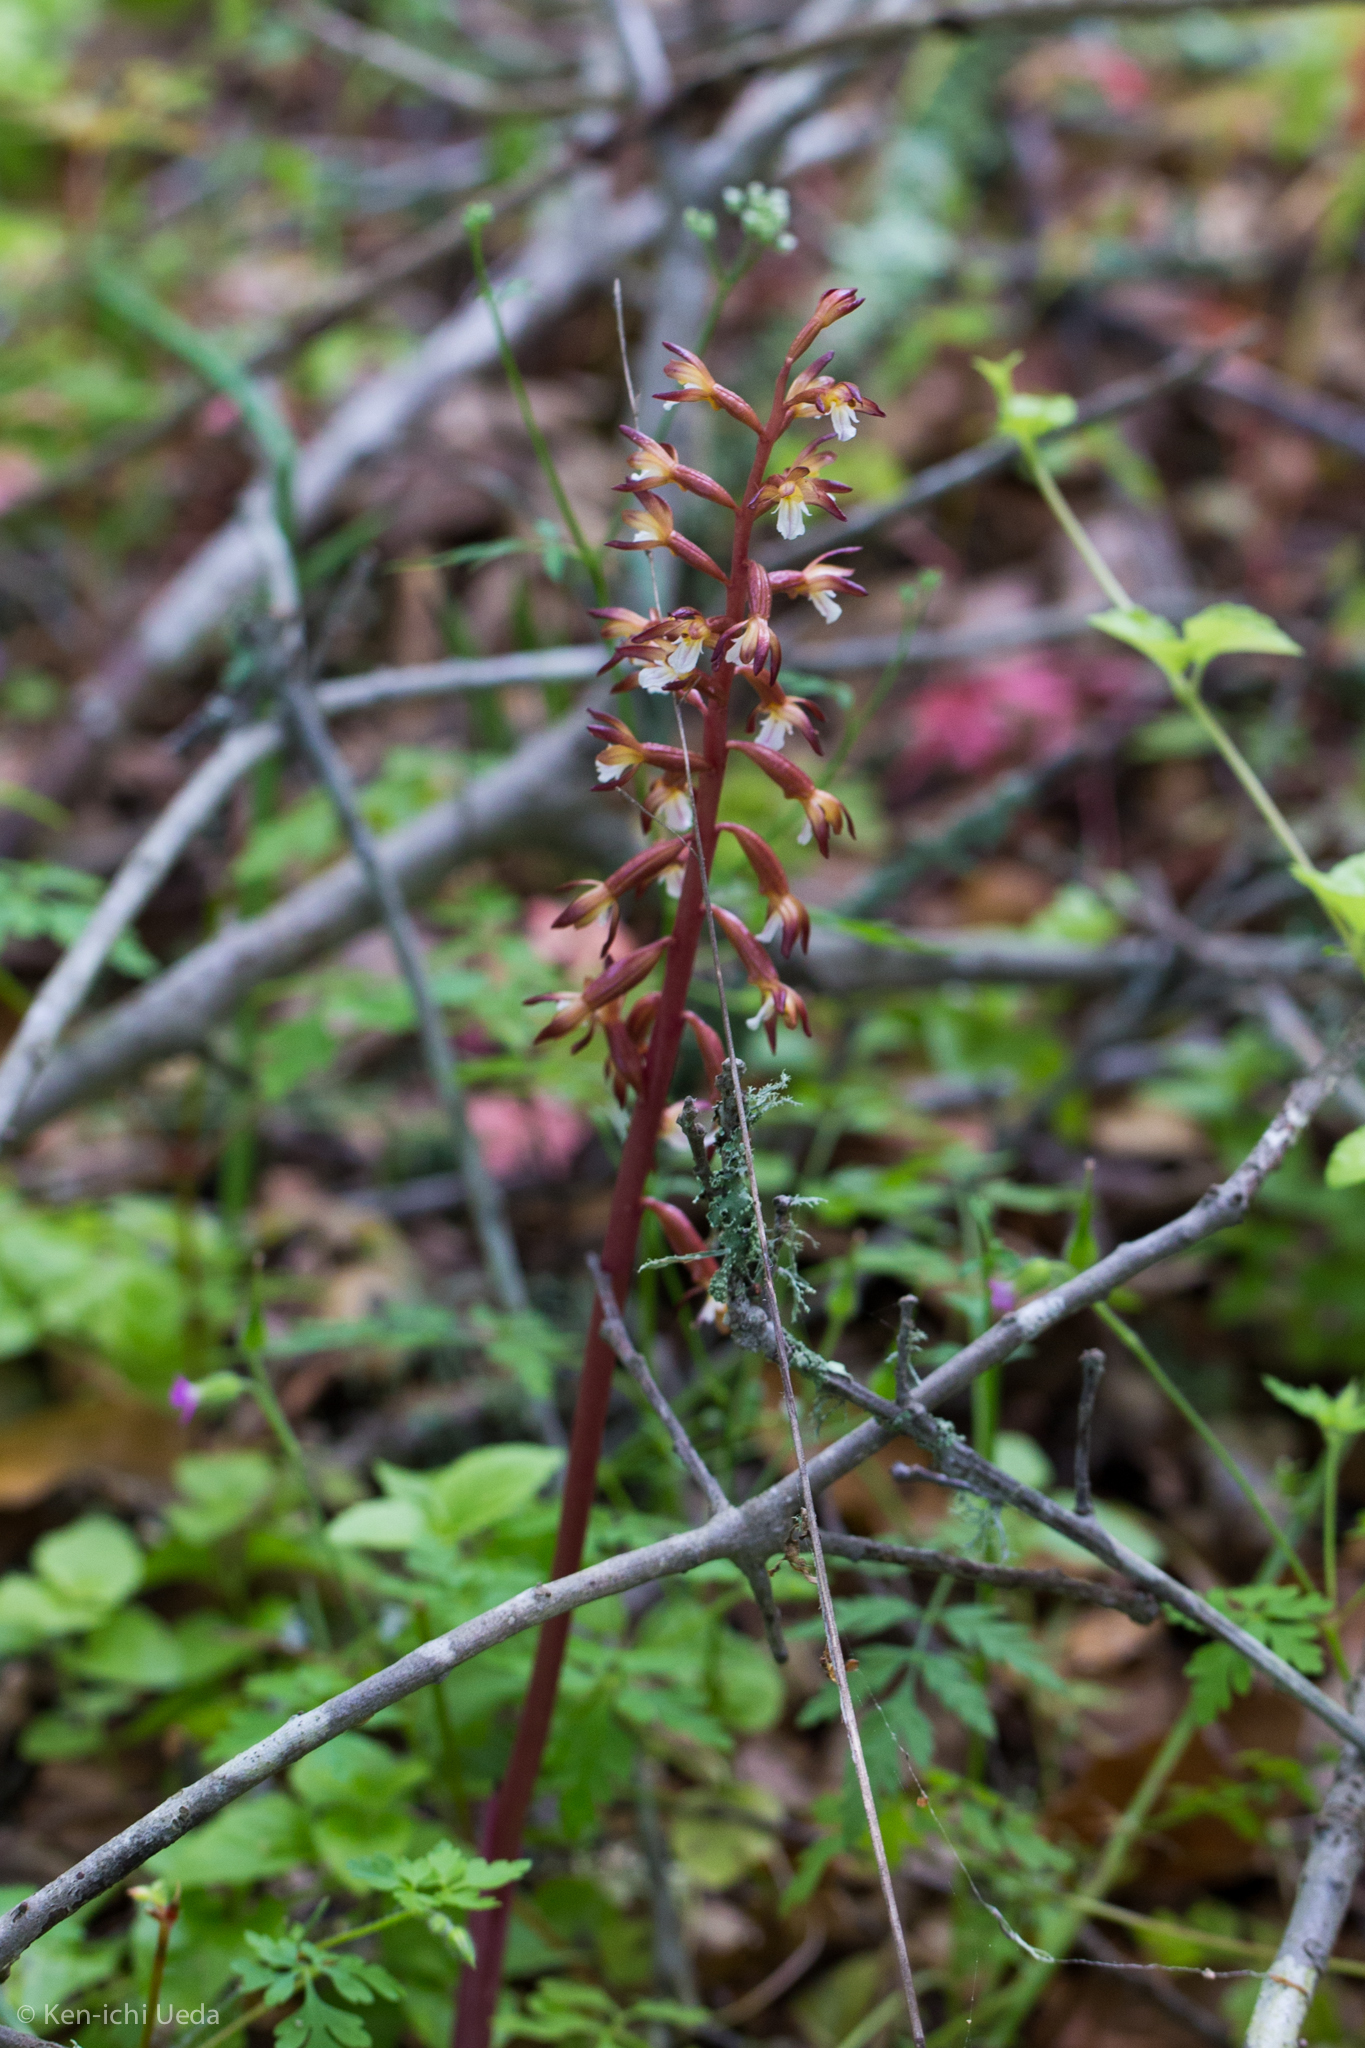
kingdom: Plantae
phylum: Tracheophyta
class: Liliopsida
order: Asparagales
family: Orchidaceae
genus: Corallorhiza
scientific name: Corallorhiza maculata
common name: Spotted coralroot
